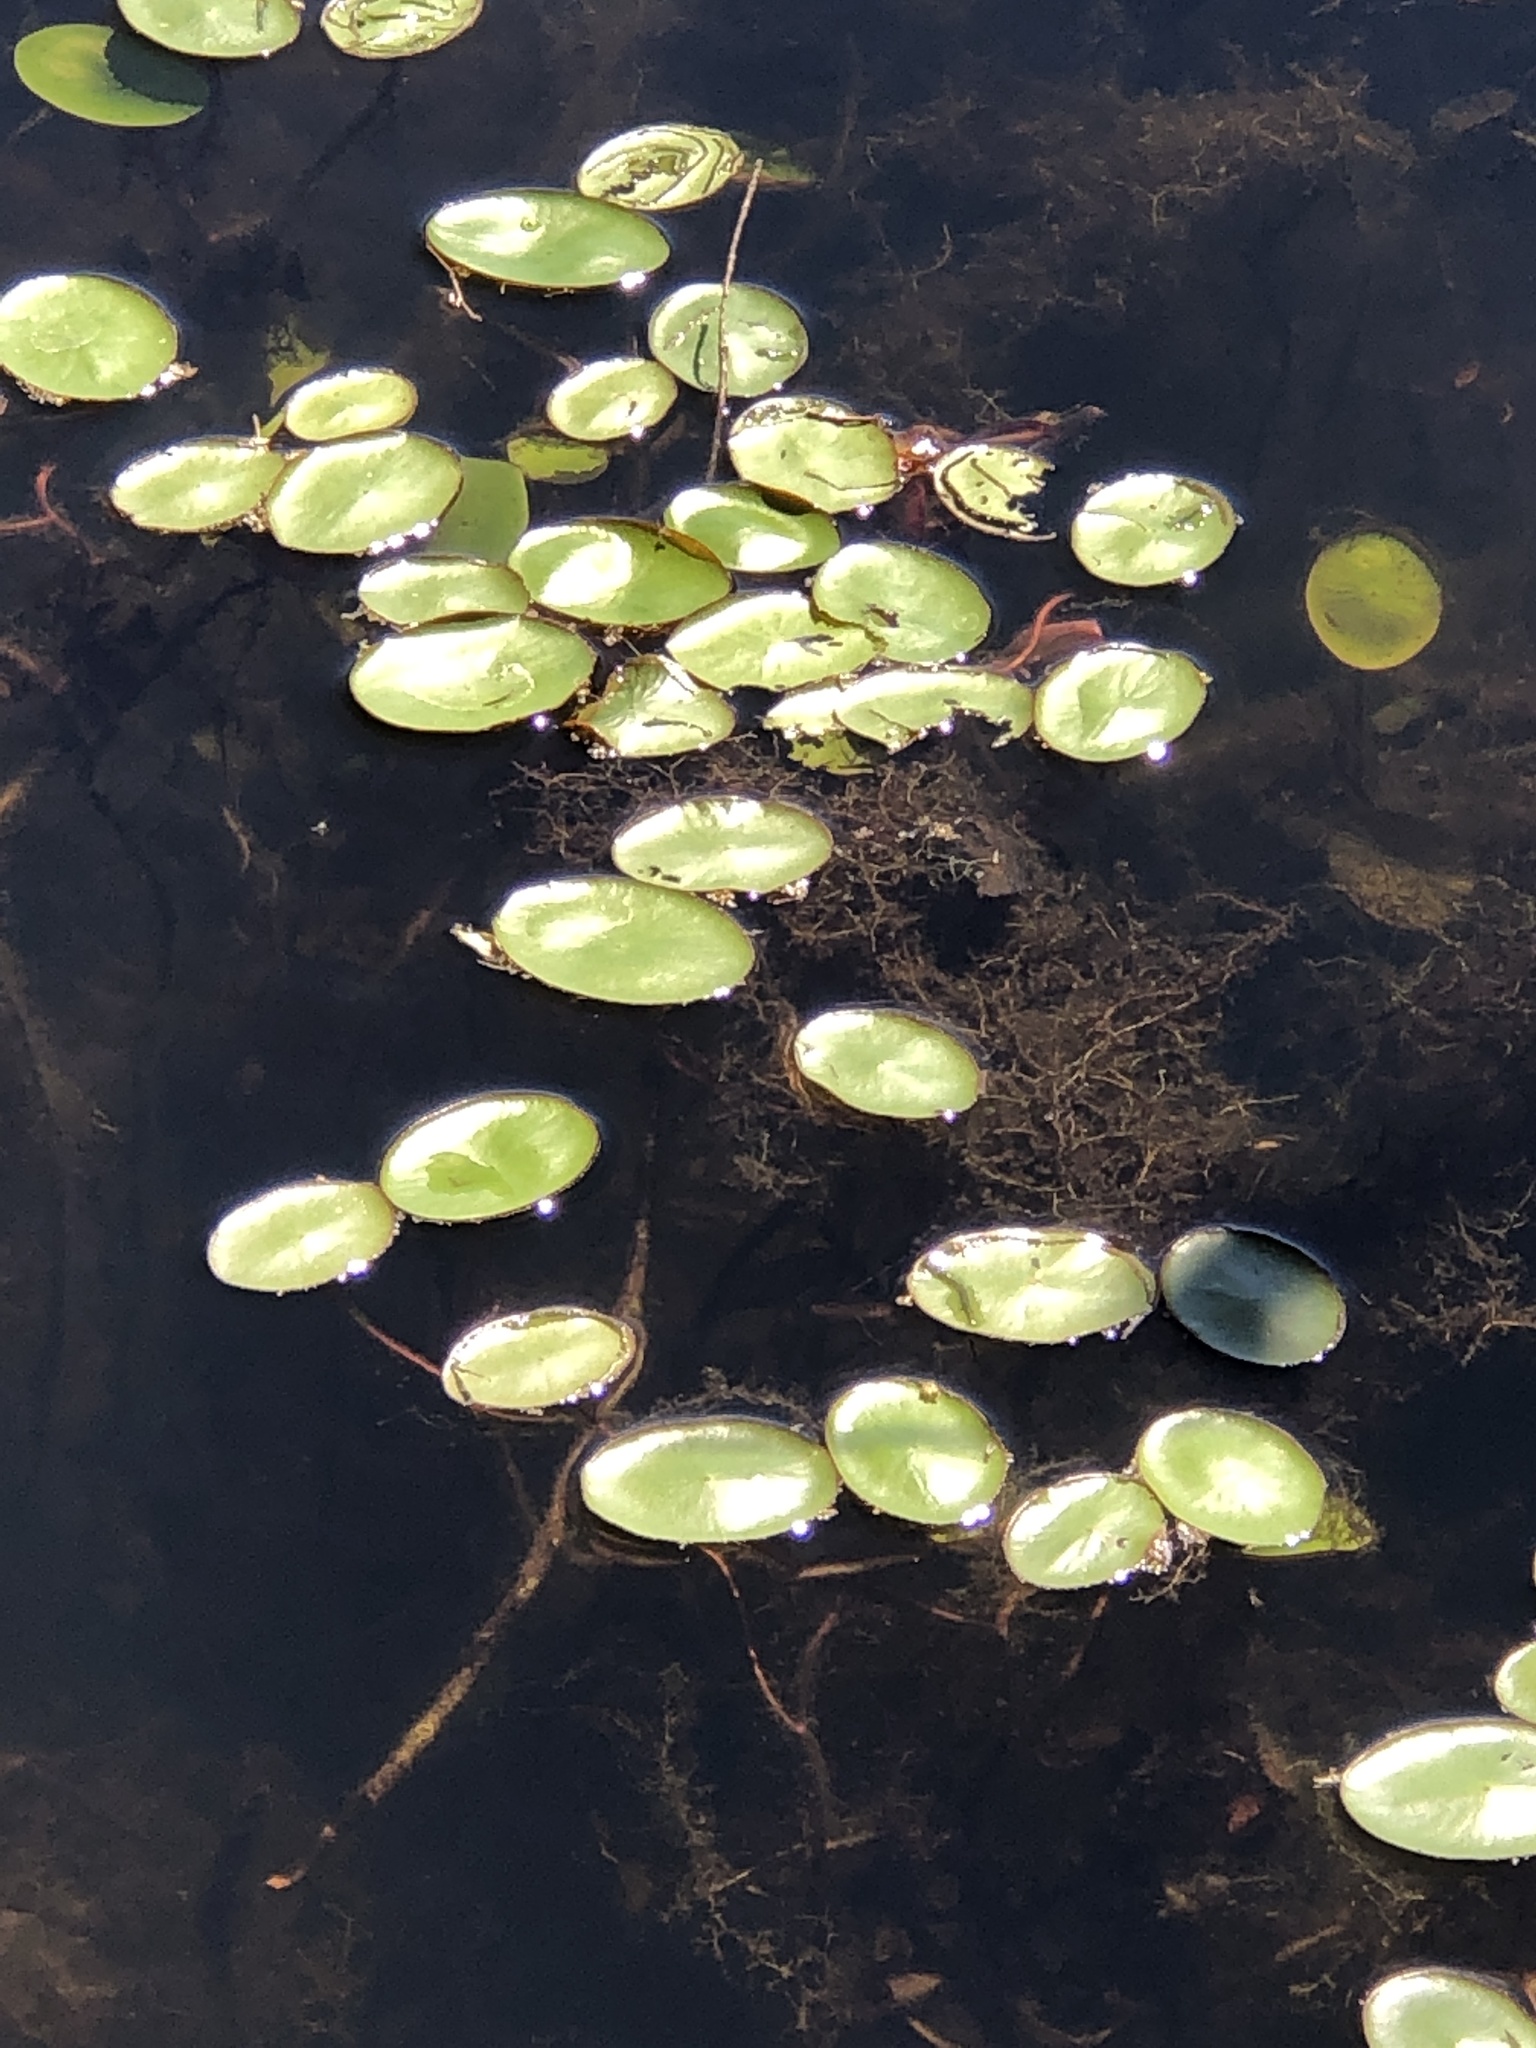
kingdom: Plantae
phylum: Tracheophyta
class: Magnoliopsida
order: Nymphaeales
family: Cabombaceae
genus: Brasenia
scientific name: Brasenia schreberi
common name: Water-shield
